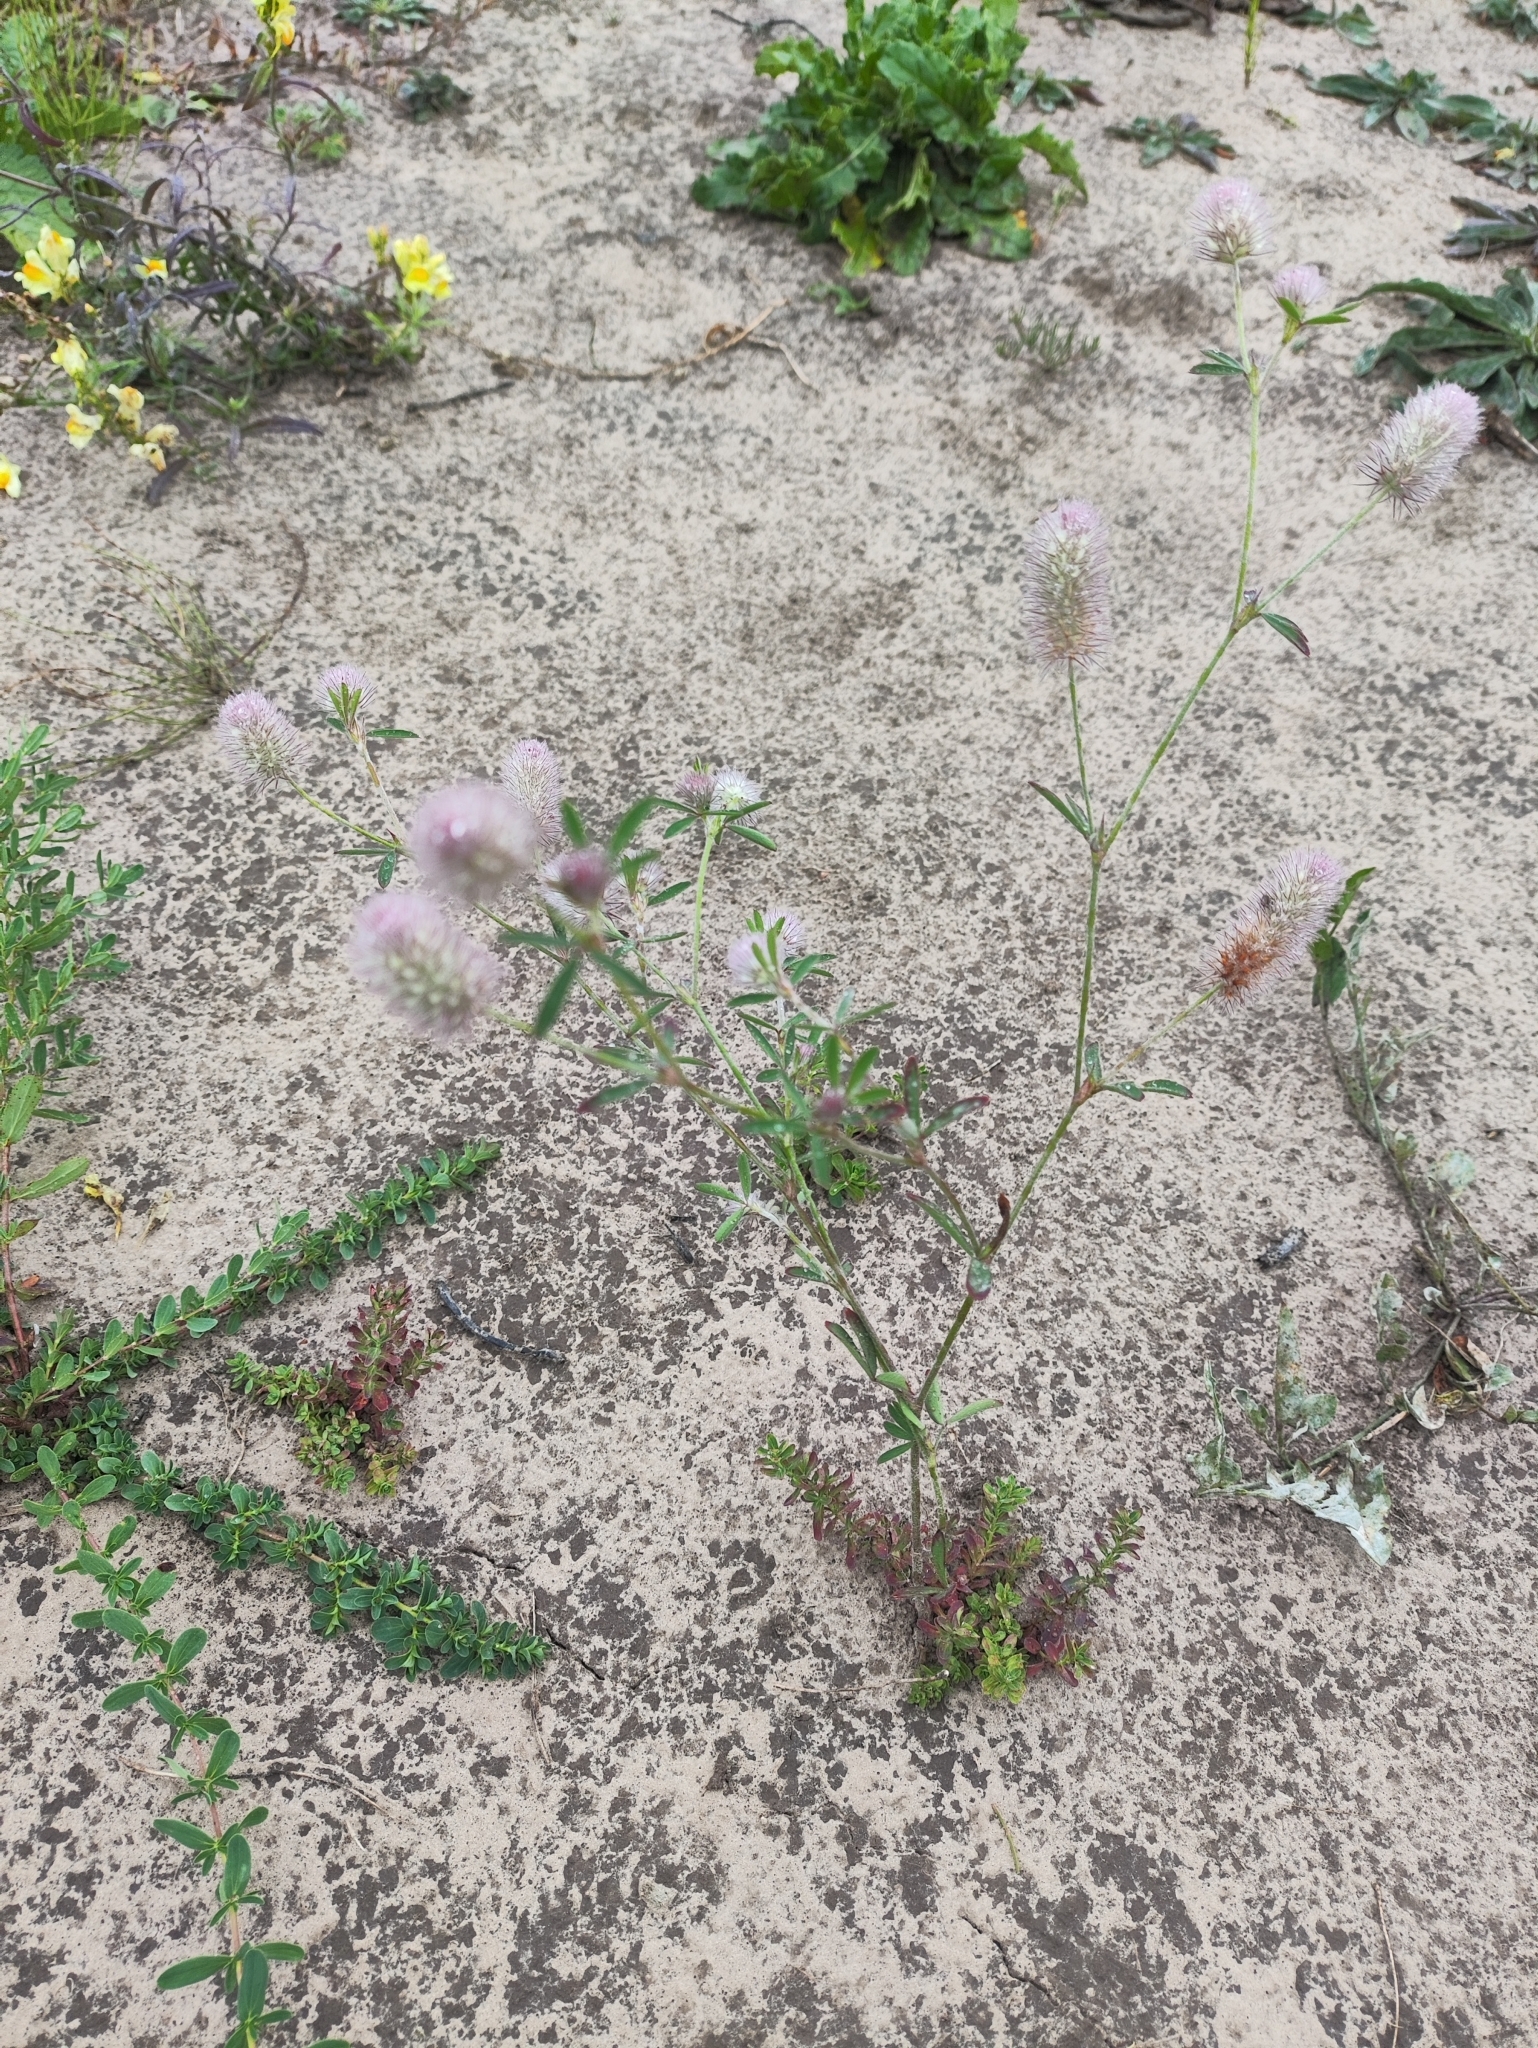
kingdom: Plantae
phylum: Tracheophyta
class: Magnoliopsida
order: Fabales
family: Fabaceae
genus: Trifolium
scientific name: Trifolium arvense
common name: Hare's-foot clover
